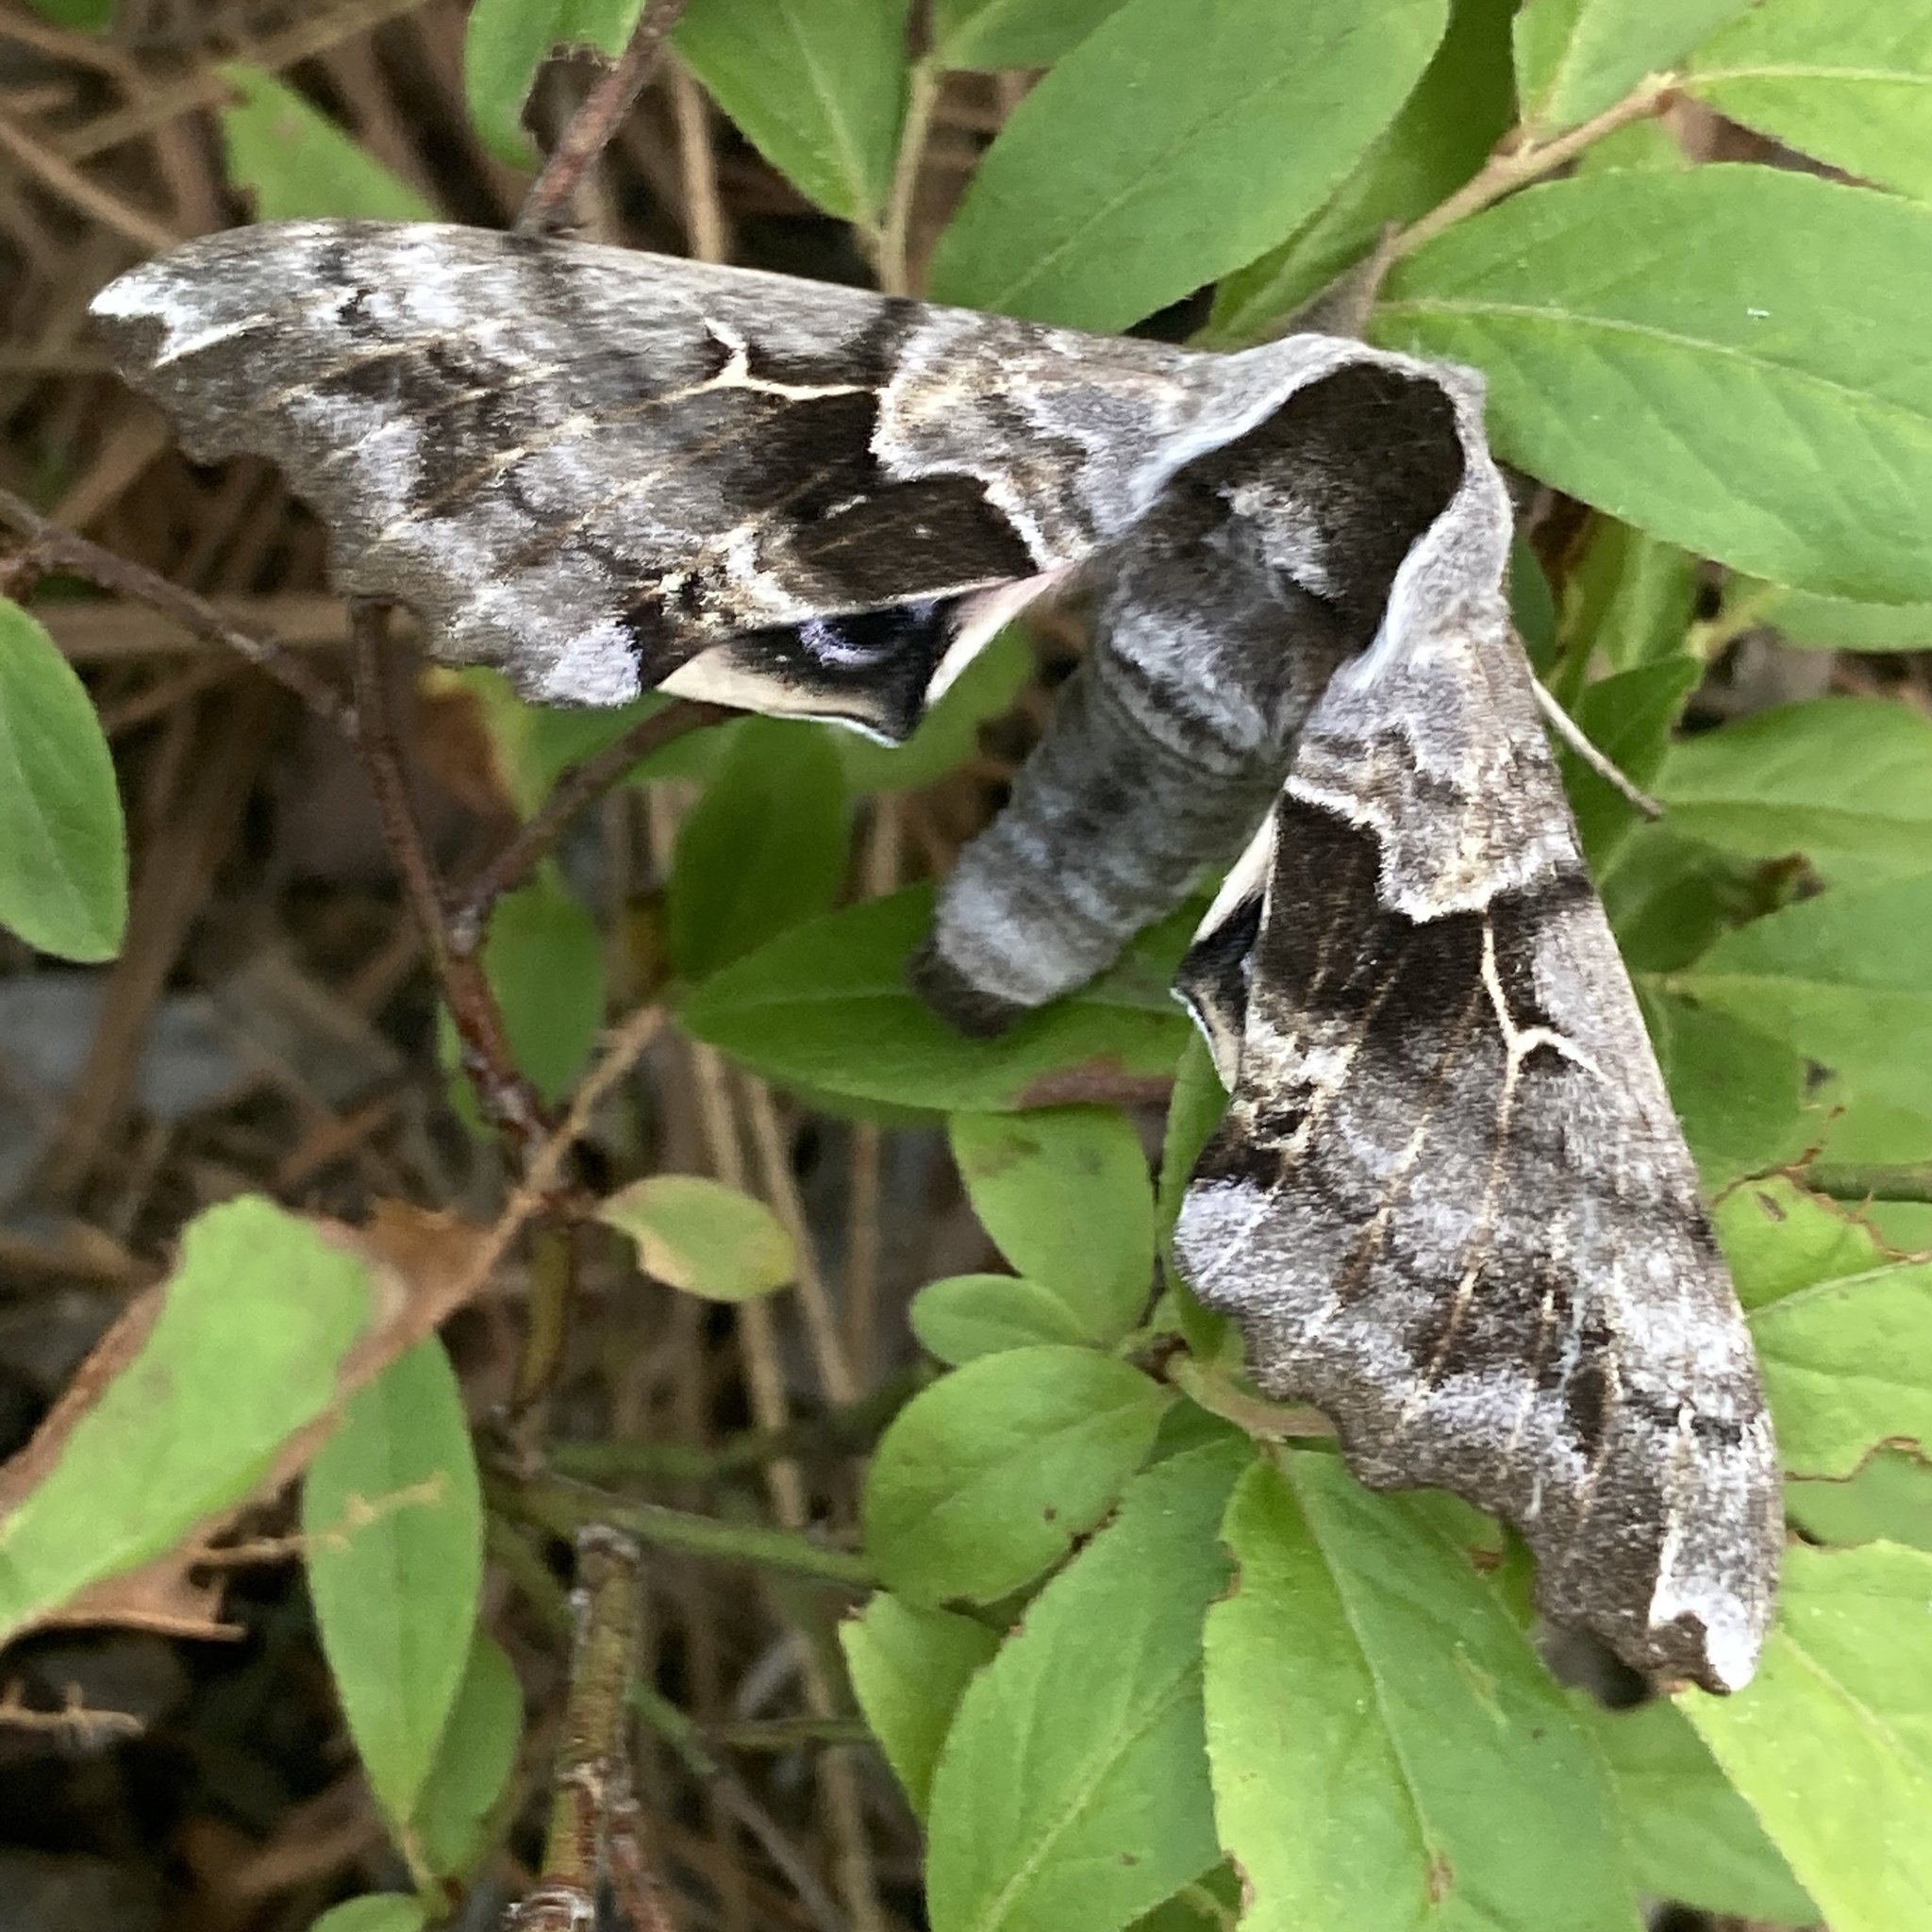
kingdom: Animalia
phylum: Arthropoda
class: Insecta
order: Lepidoptera
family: Sphingidae
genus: Smerinthus
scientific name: Smerinthus cerisyi
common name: Cerisy's sphinx moth
